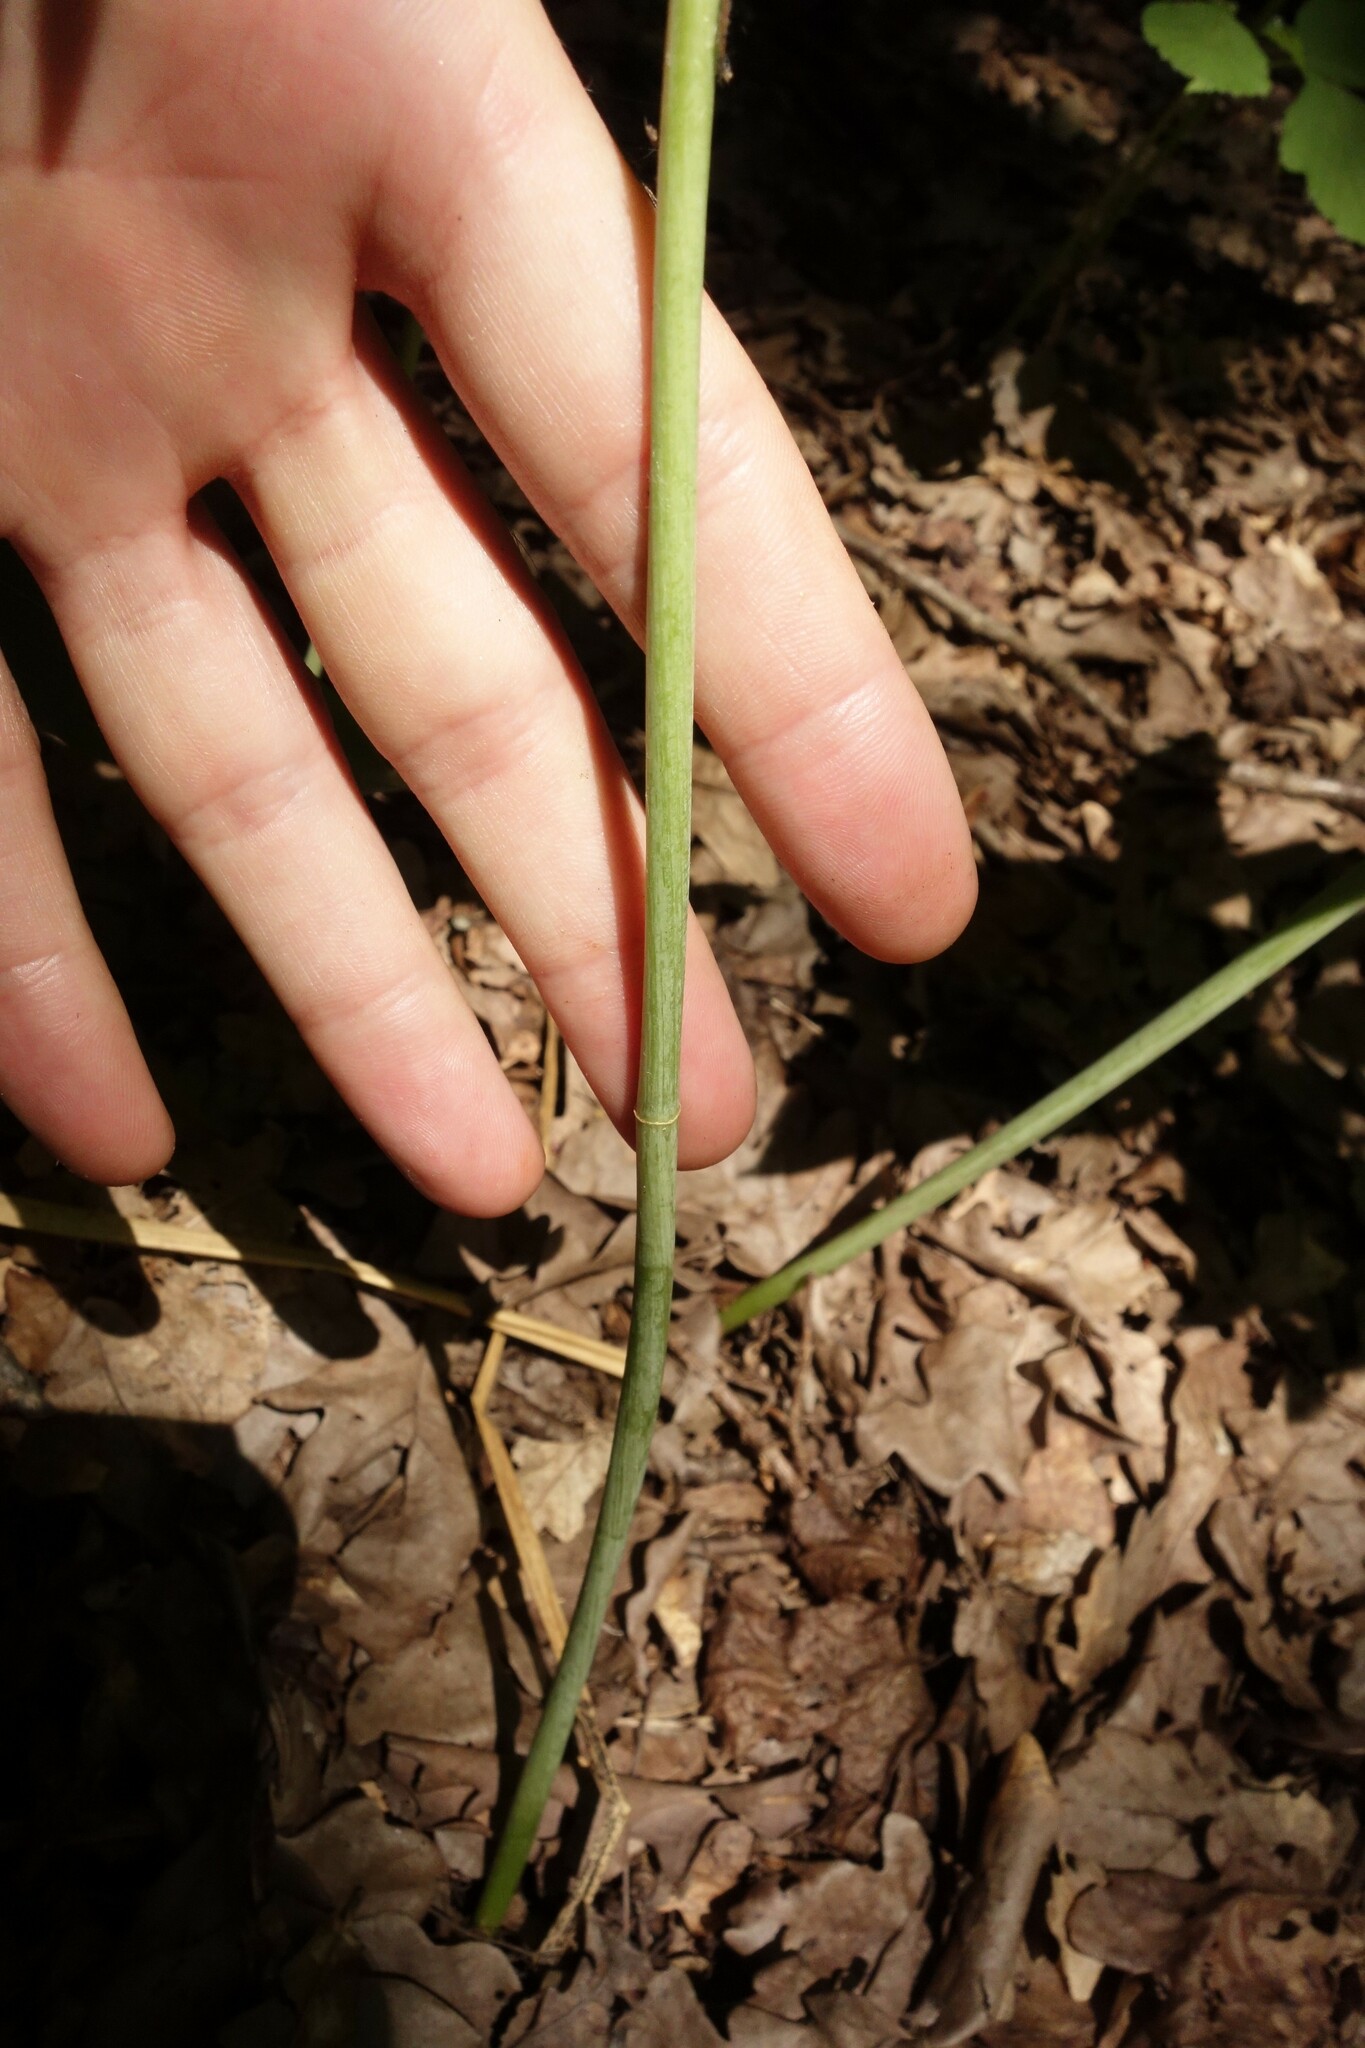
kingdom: Plantae
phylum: Tracheophyta
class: Liliopsida
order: Asparagales
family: Asparagaceae
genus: Polygonatum
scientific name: Polygonatum multiflorum
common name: Solomon's-seal
